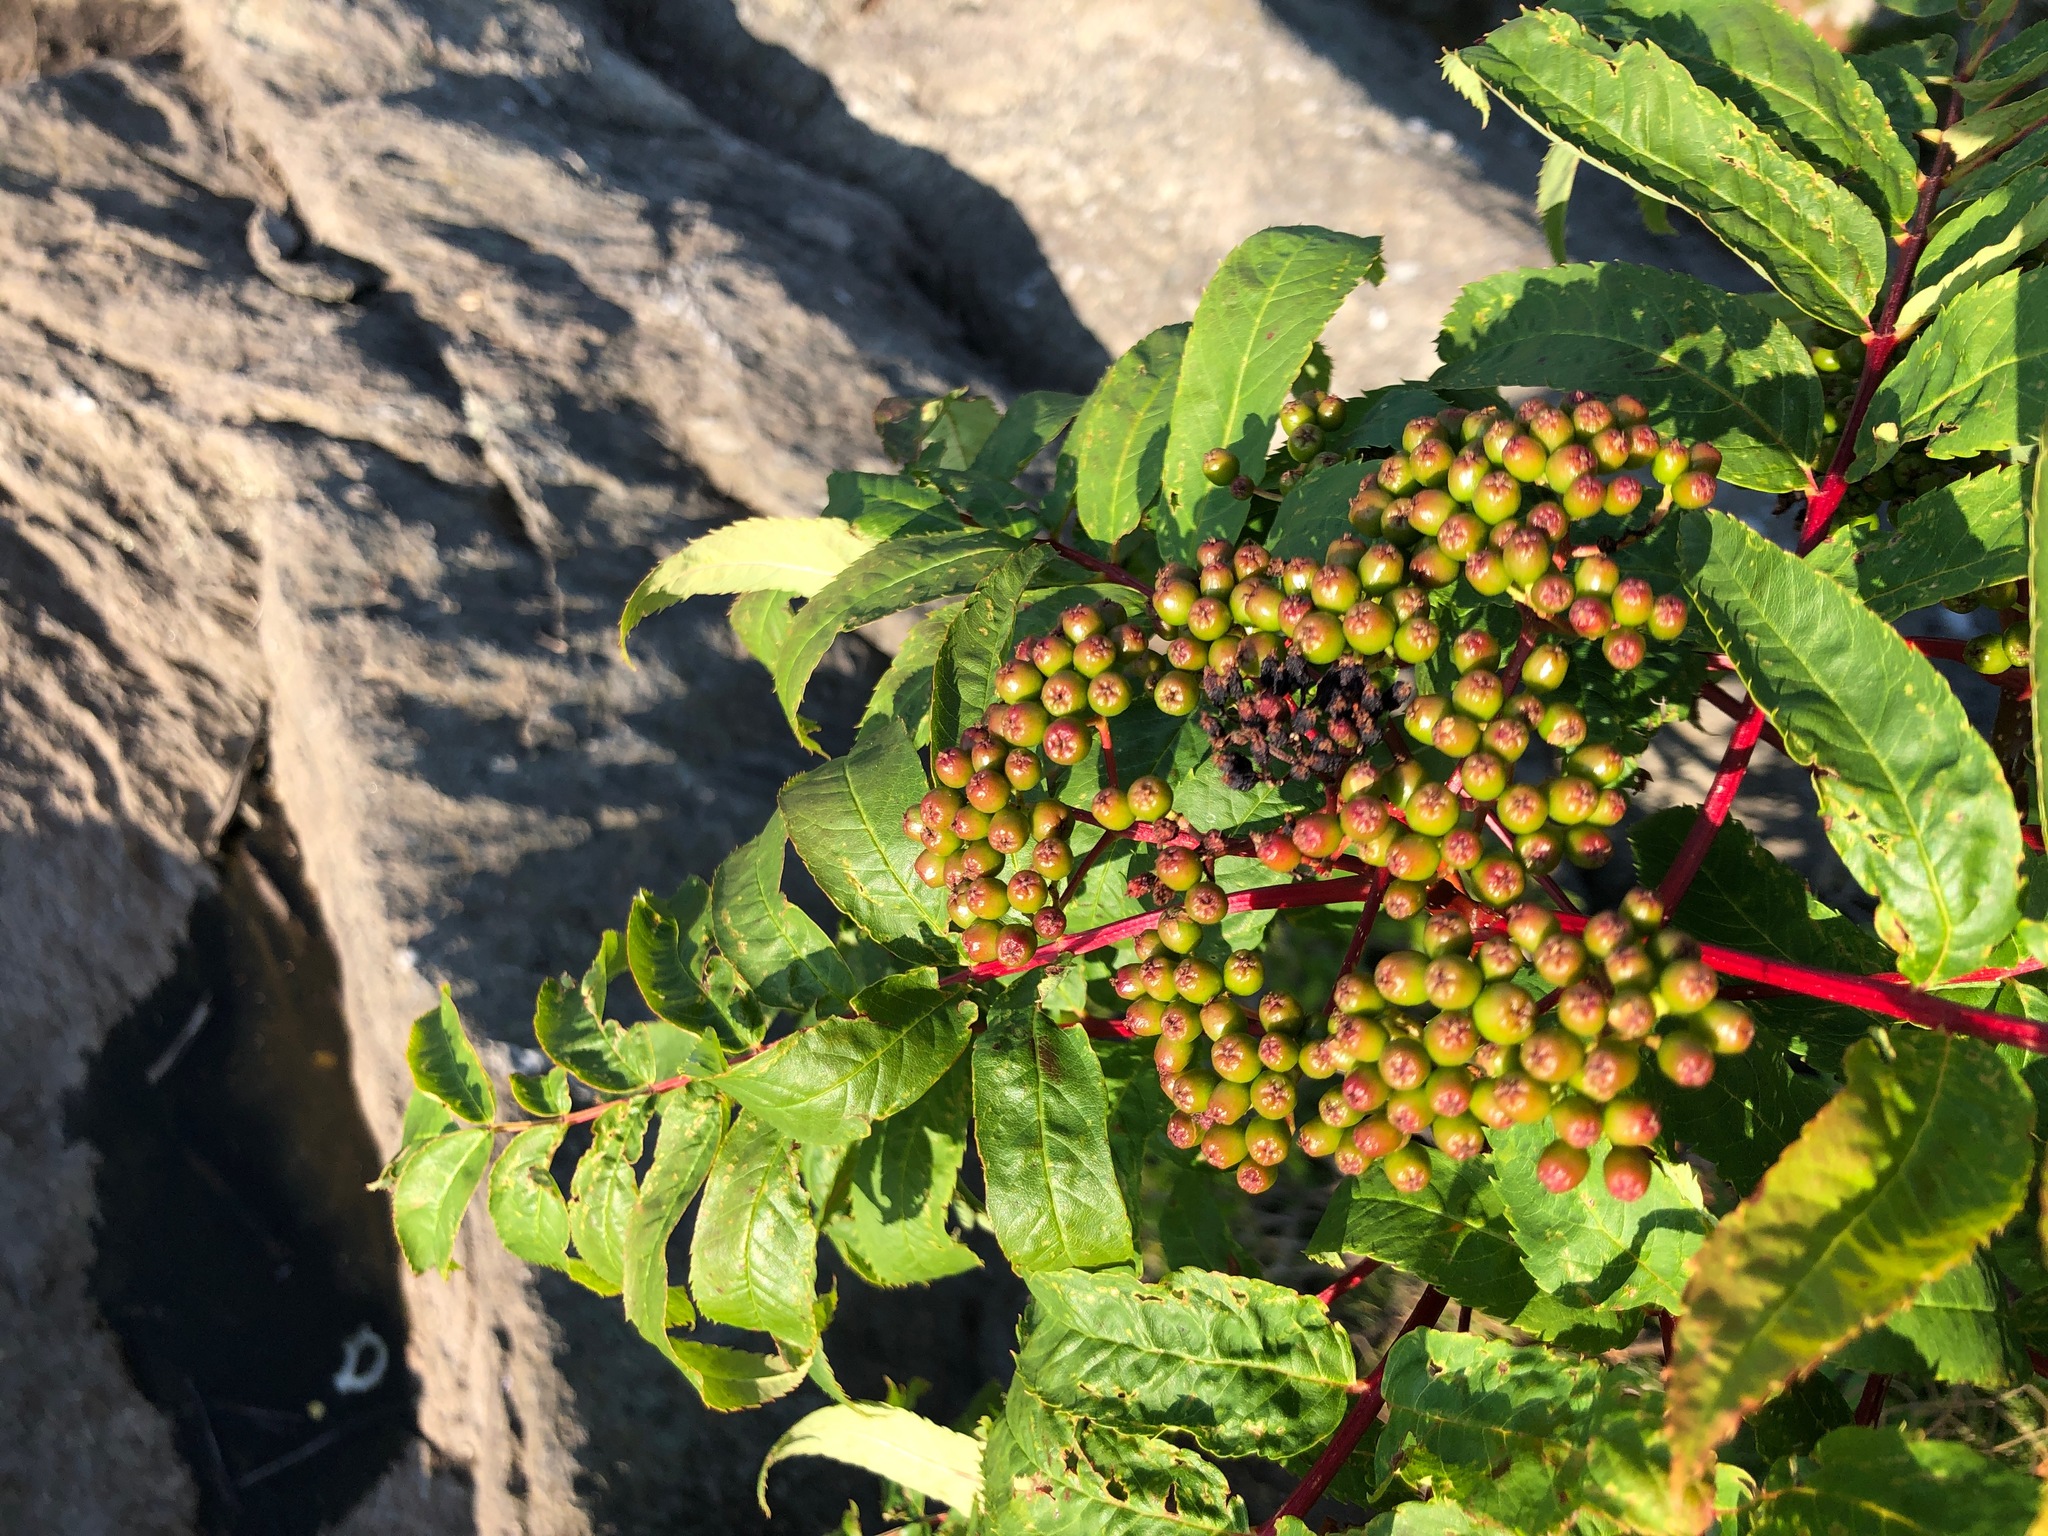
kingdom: Plantae
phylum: Tracheophyta
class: Magnoliopsida
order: Rosales
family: Rosaceae
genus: Sorbus
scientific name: Sorbus americana
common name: American mountain-ash
